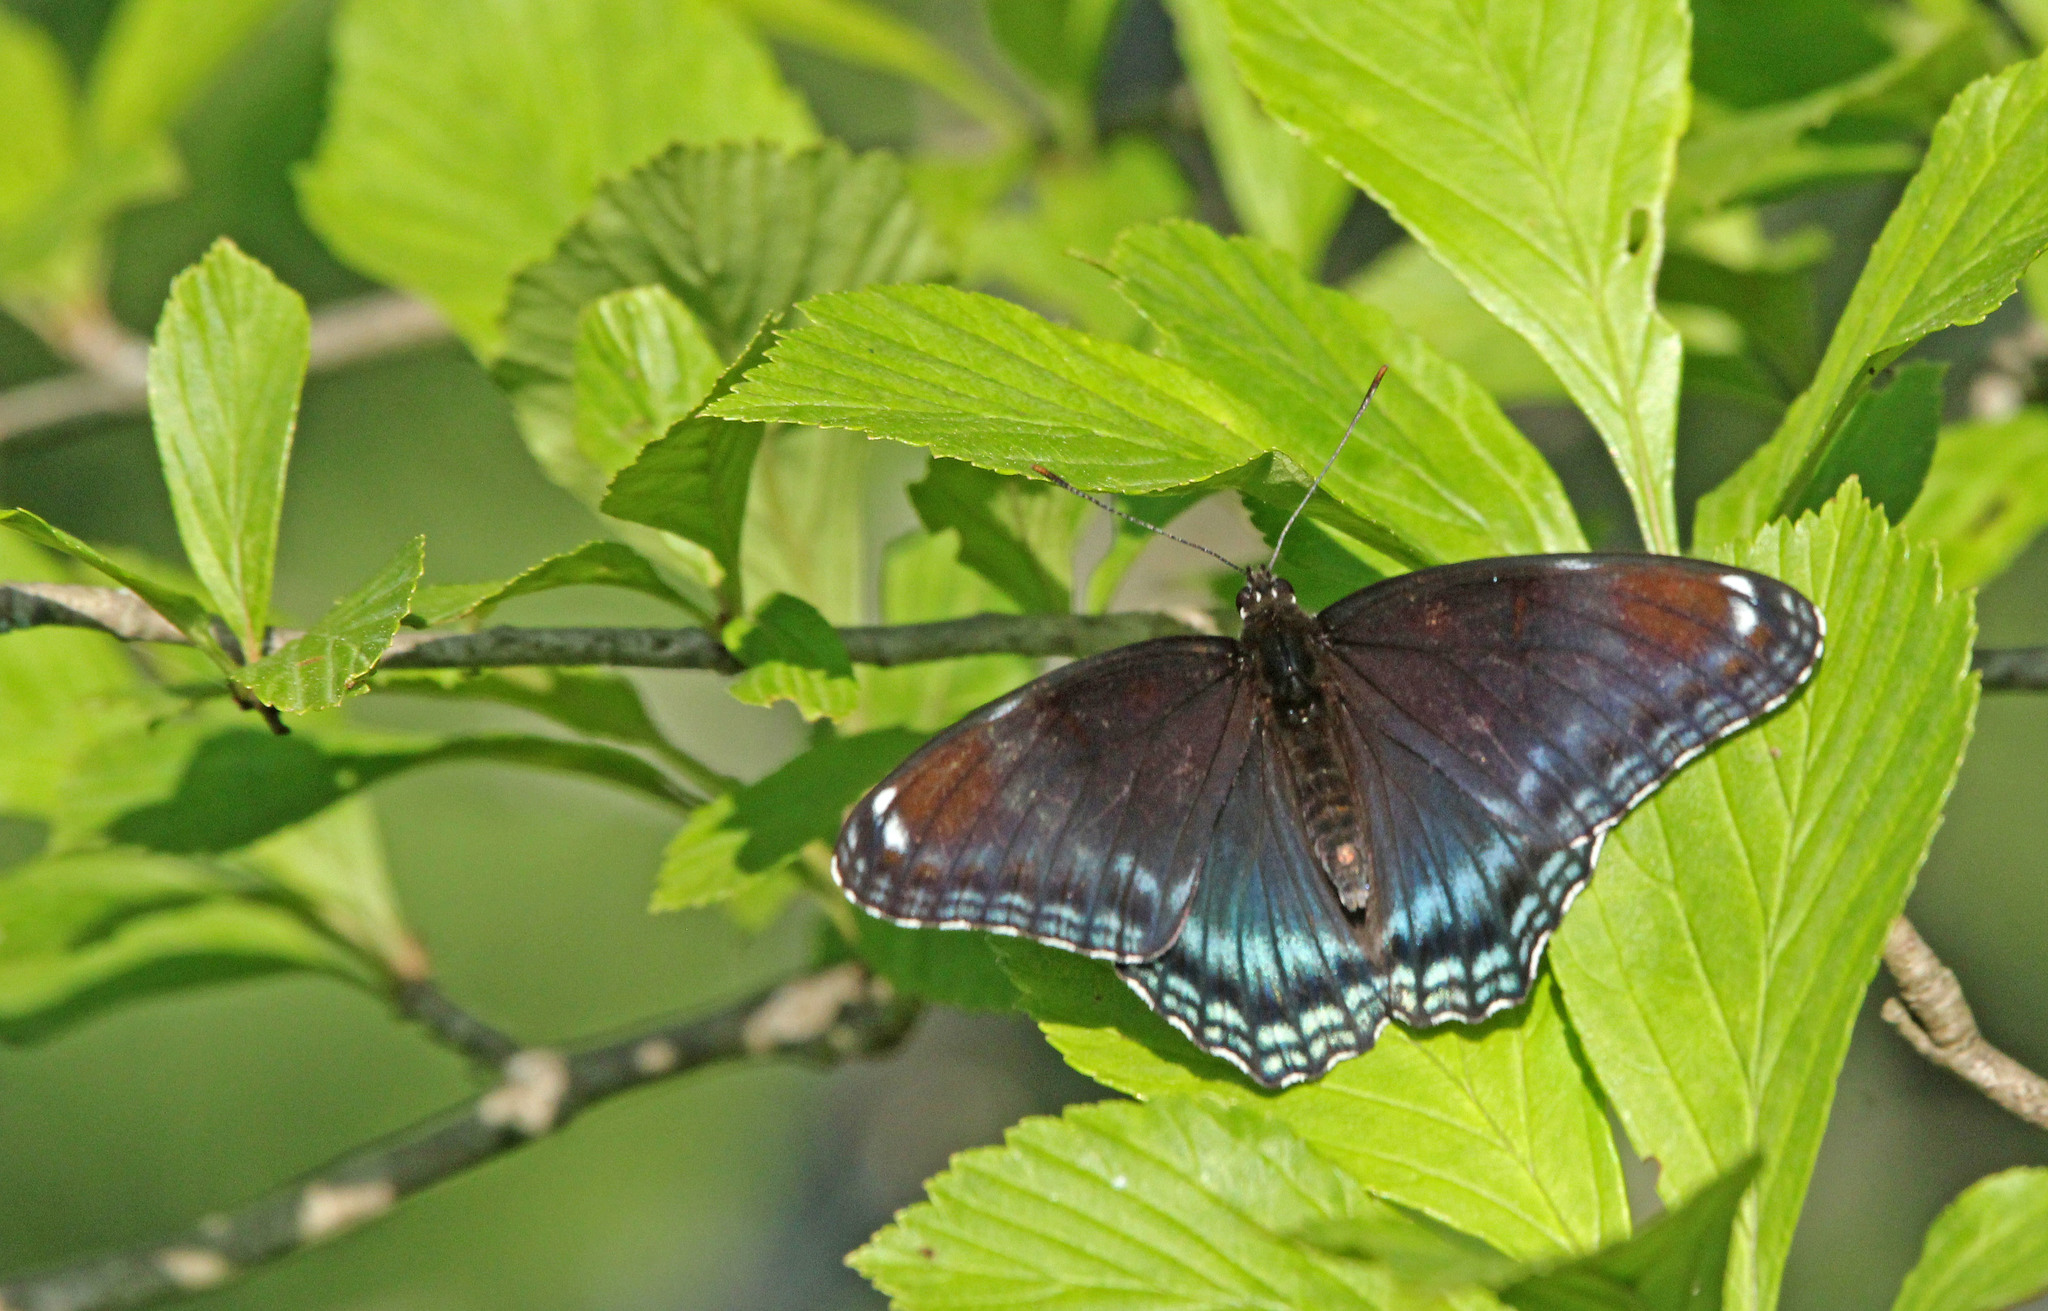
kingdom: Animalia
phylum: Arthropoda
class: Insecta
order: Lepidoptera
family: Nymphalidae
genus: Limenitis
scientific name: Limenitis astyanax
